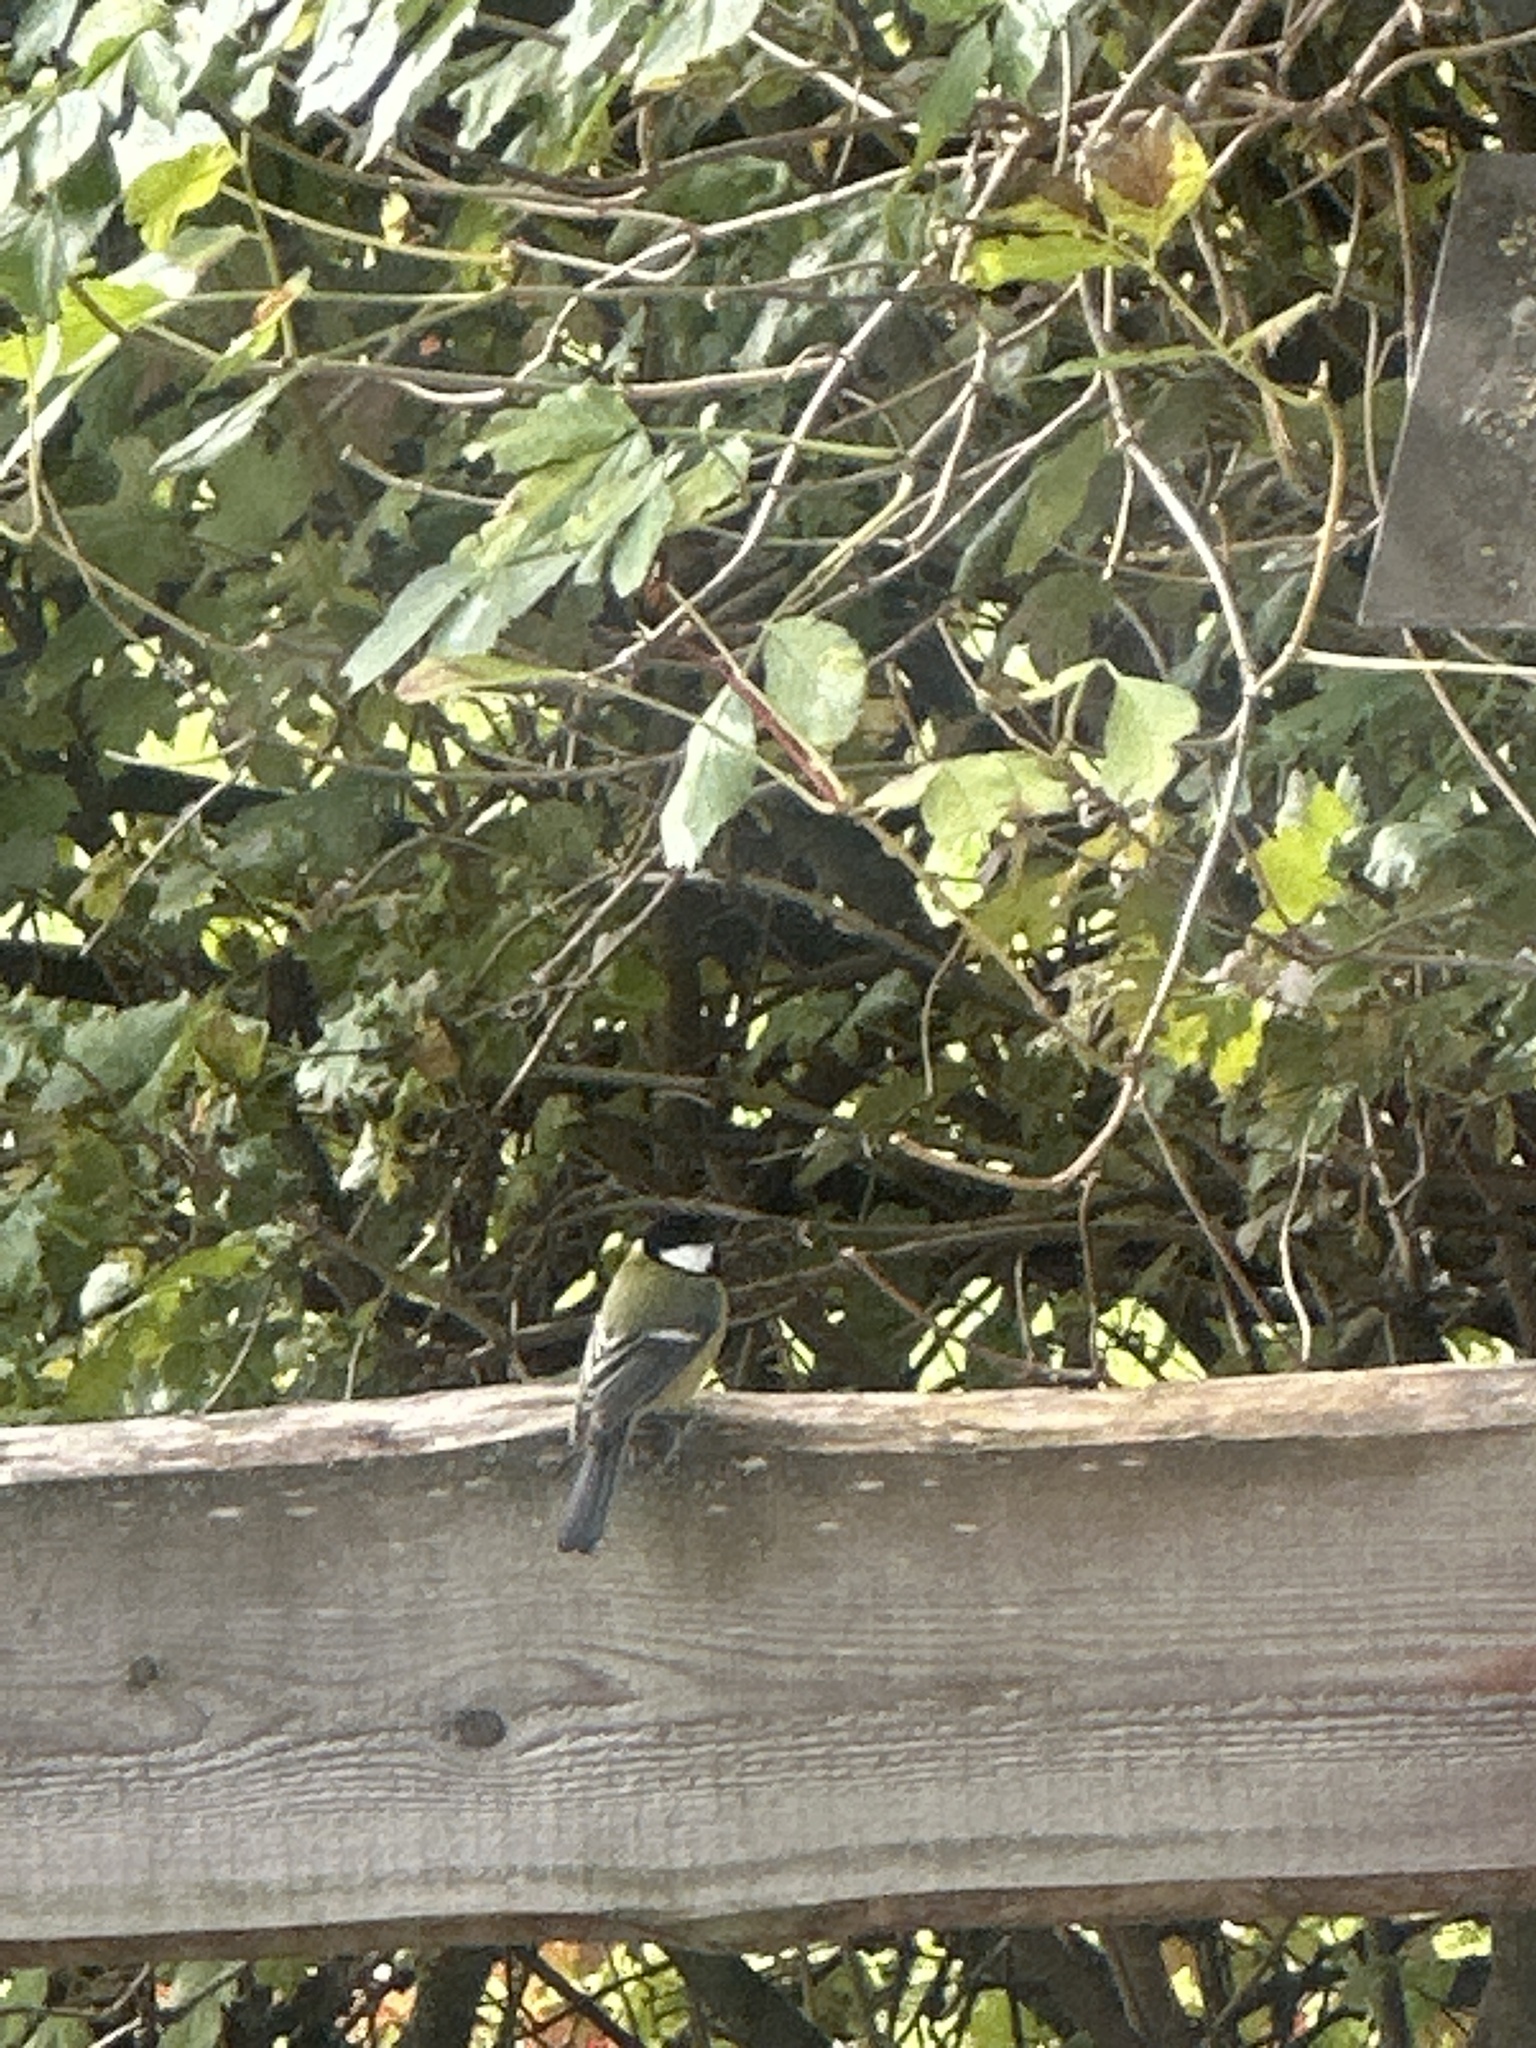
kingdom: Animalia
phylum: Chordata
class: Aves
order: Passeriformes
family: Paridae
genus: Parus
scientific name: Parus major
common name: Great tit
